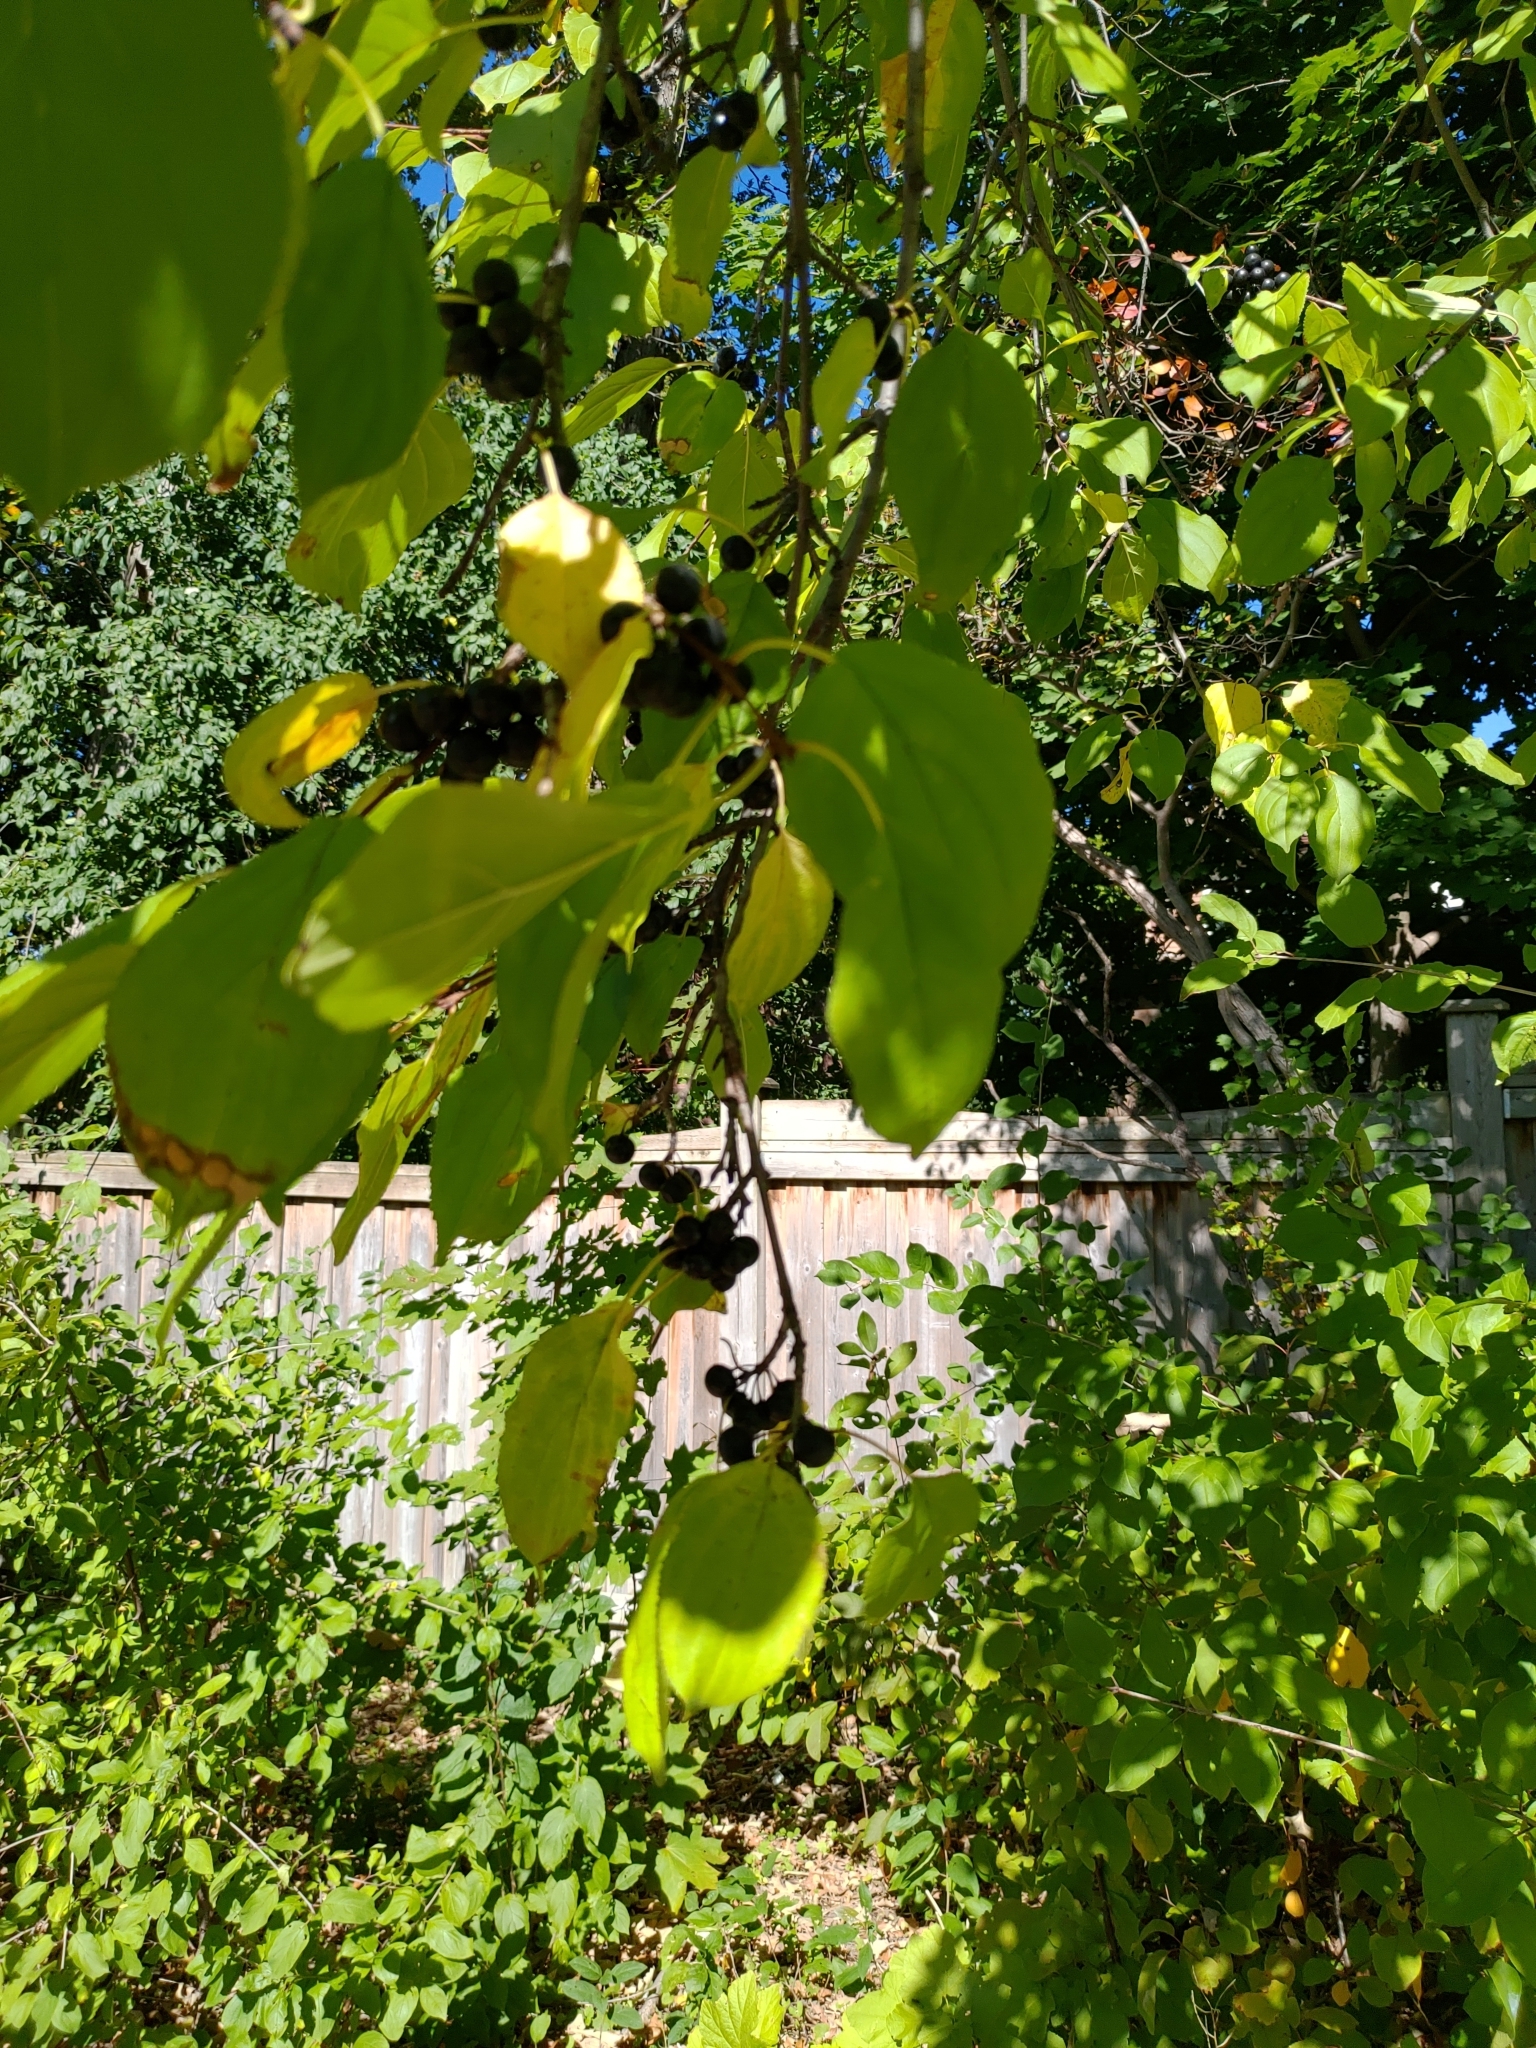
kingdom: Plantae
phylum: Tracheophyta
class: Magnoliopsida
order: Rosales
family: Rhamnaceae
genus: Rhamnus
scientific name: Rhamnus cathartica
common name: Common buckthorn
